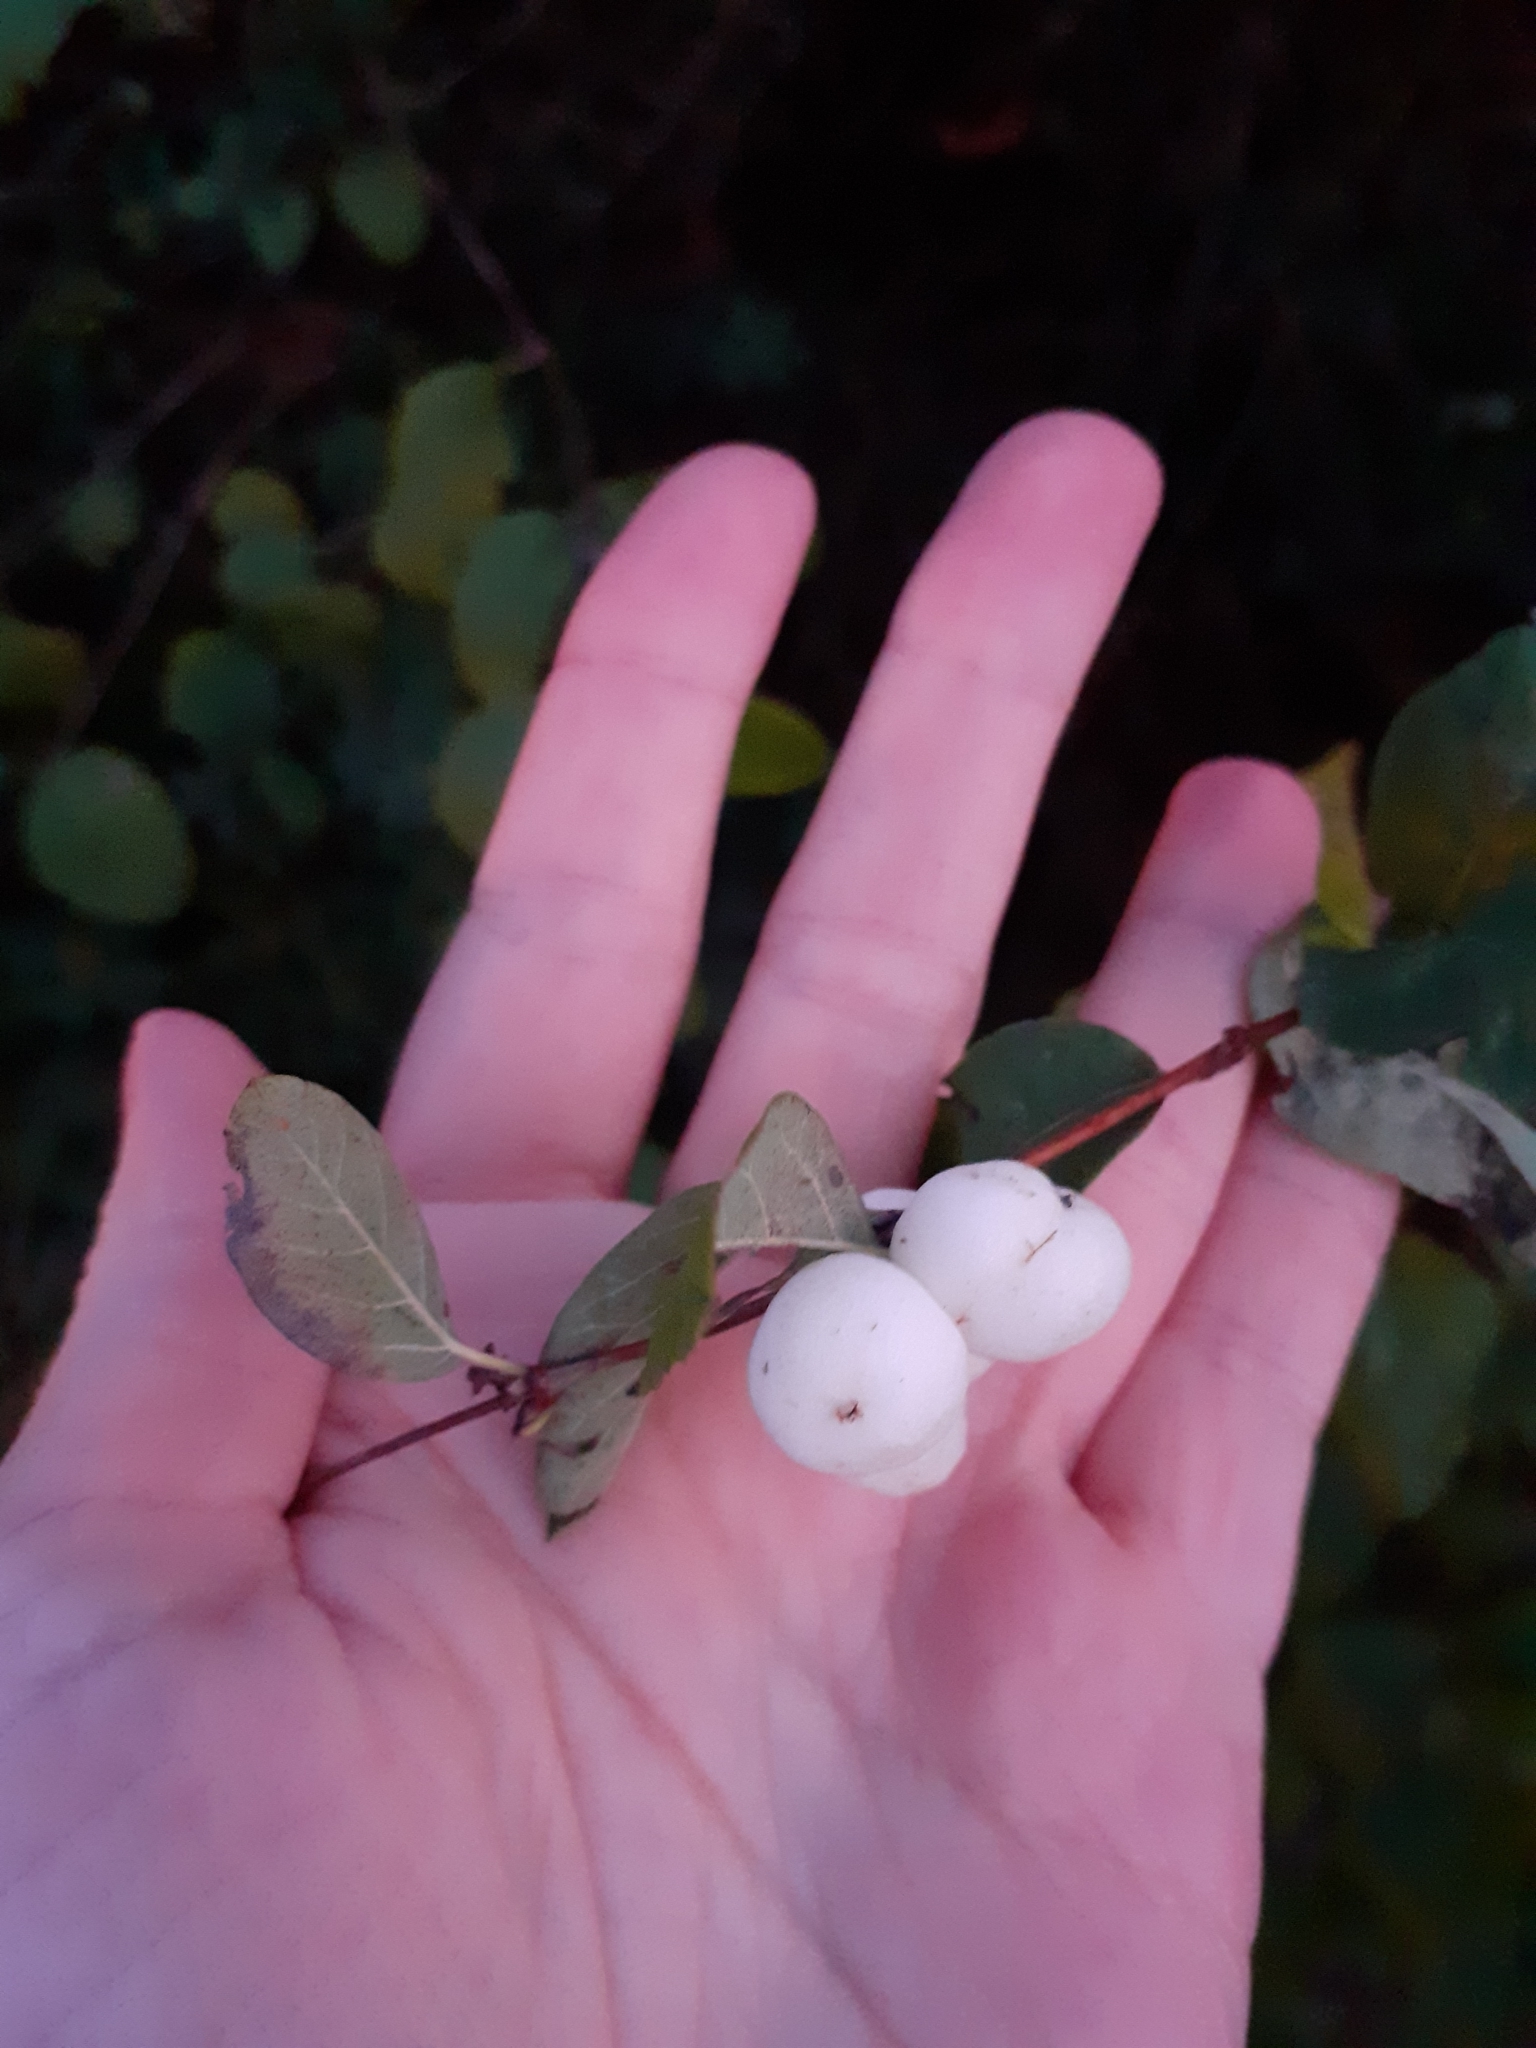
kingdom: Plantae
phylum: Tracheophyta
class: Magnoliopsida
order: Dipsacales
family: Caprifoliaceae
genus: Symphoricarpos
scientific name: Symphoricarpos albus
